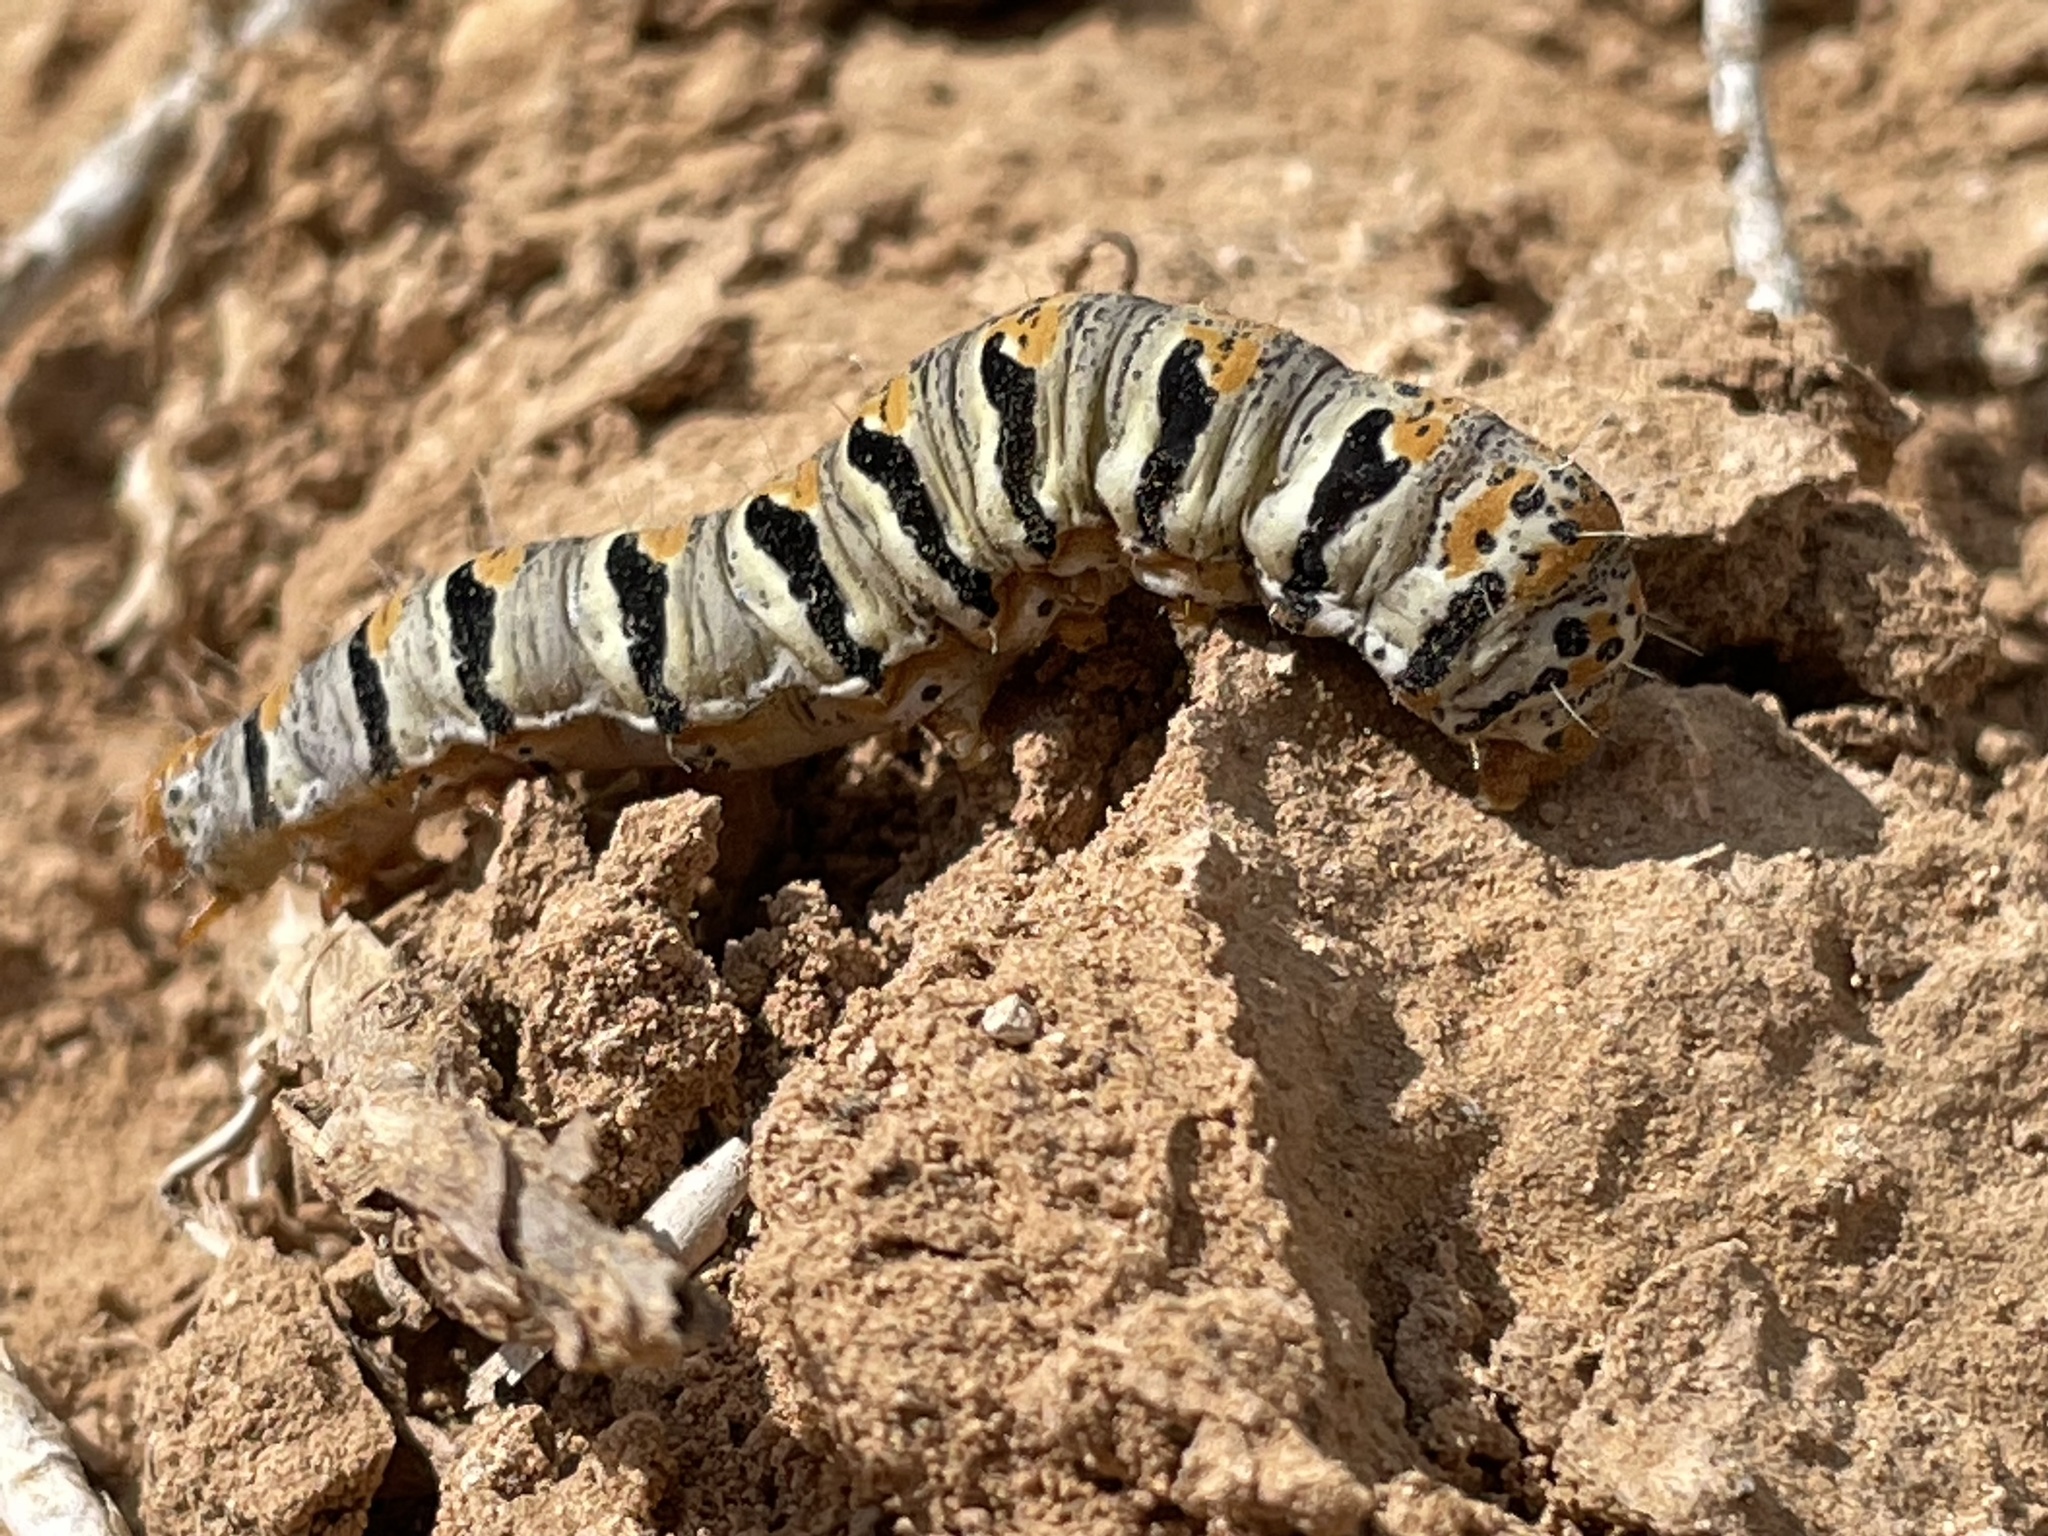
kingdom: Animalia
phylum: Arthropoda
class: Insecta
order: Lepidoptera
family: Noctuidae
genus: Euscirrhopterus
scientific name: Euscirrhopterus gloveri
